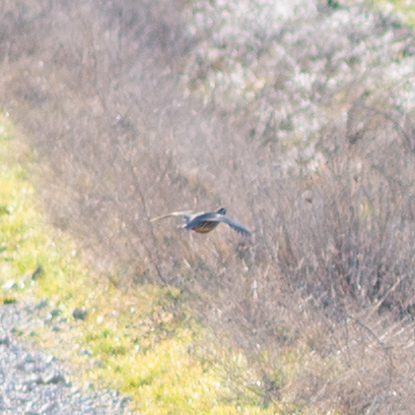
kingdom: Animalia
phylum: Chordata
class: Aves
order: Galliformes
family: Phasianidae
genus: Alectoris
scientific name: Alectoris rufa
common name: Red-legged partridge
